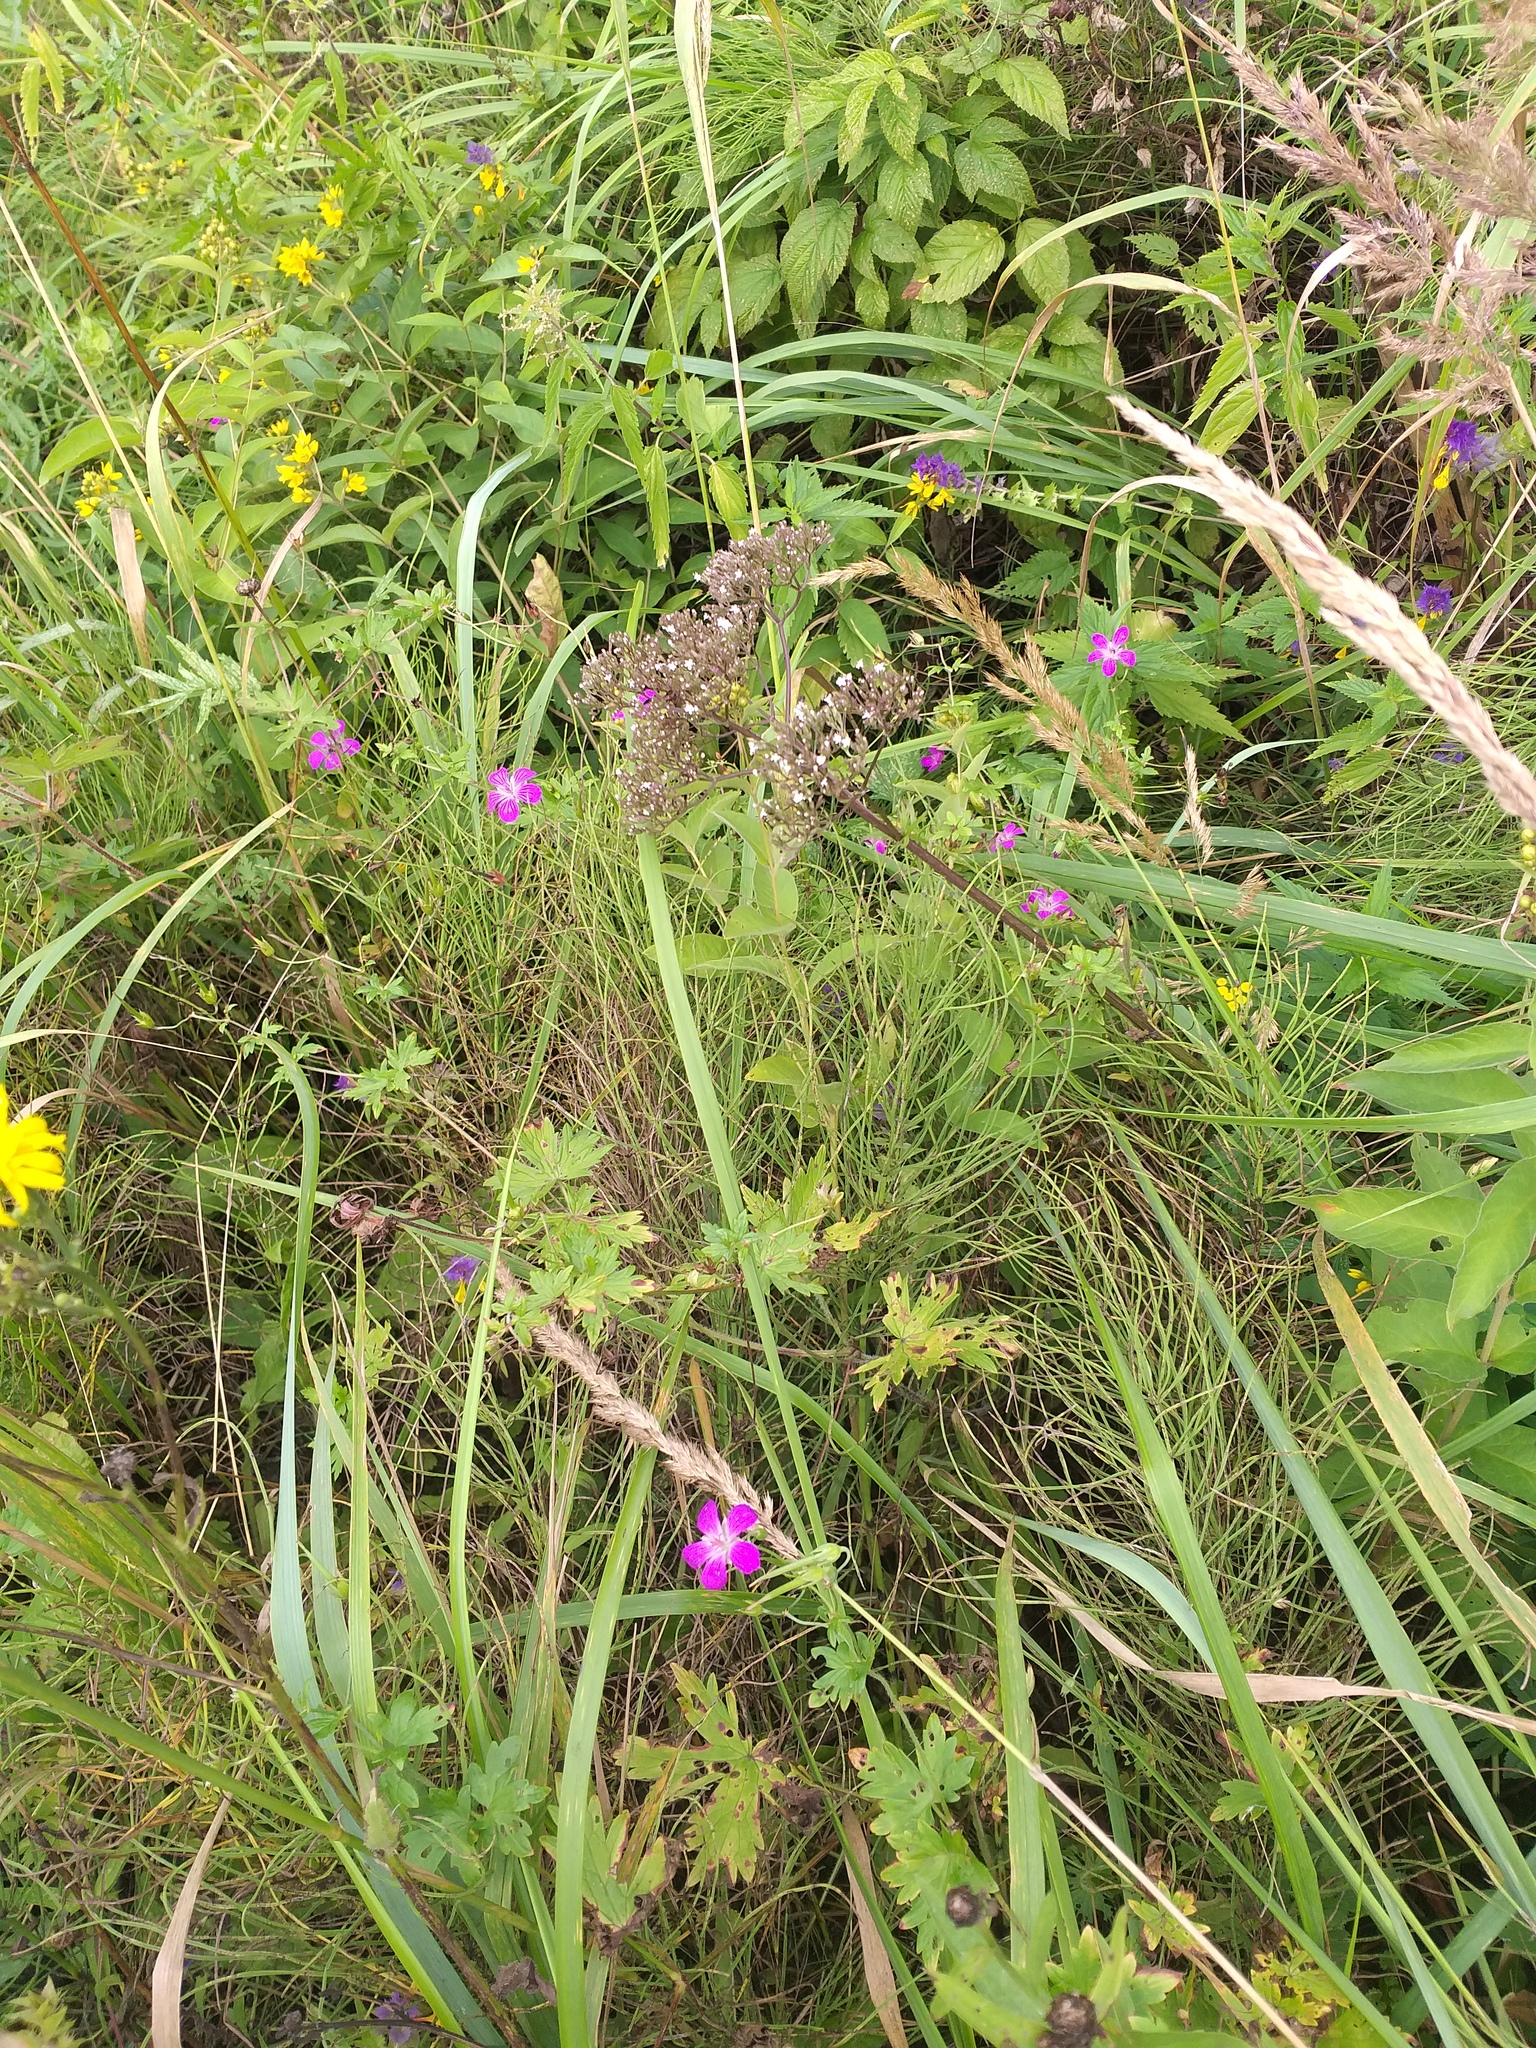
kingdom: Plantae
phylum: Tracheophyta
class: Polypodiopsida
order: Equisetales
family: Equisetaceae
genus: Equisetum
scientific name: Equisetum arvense
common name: Field horsetail
